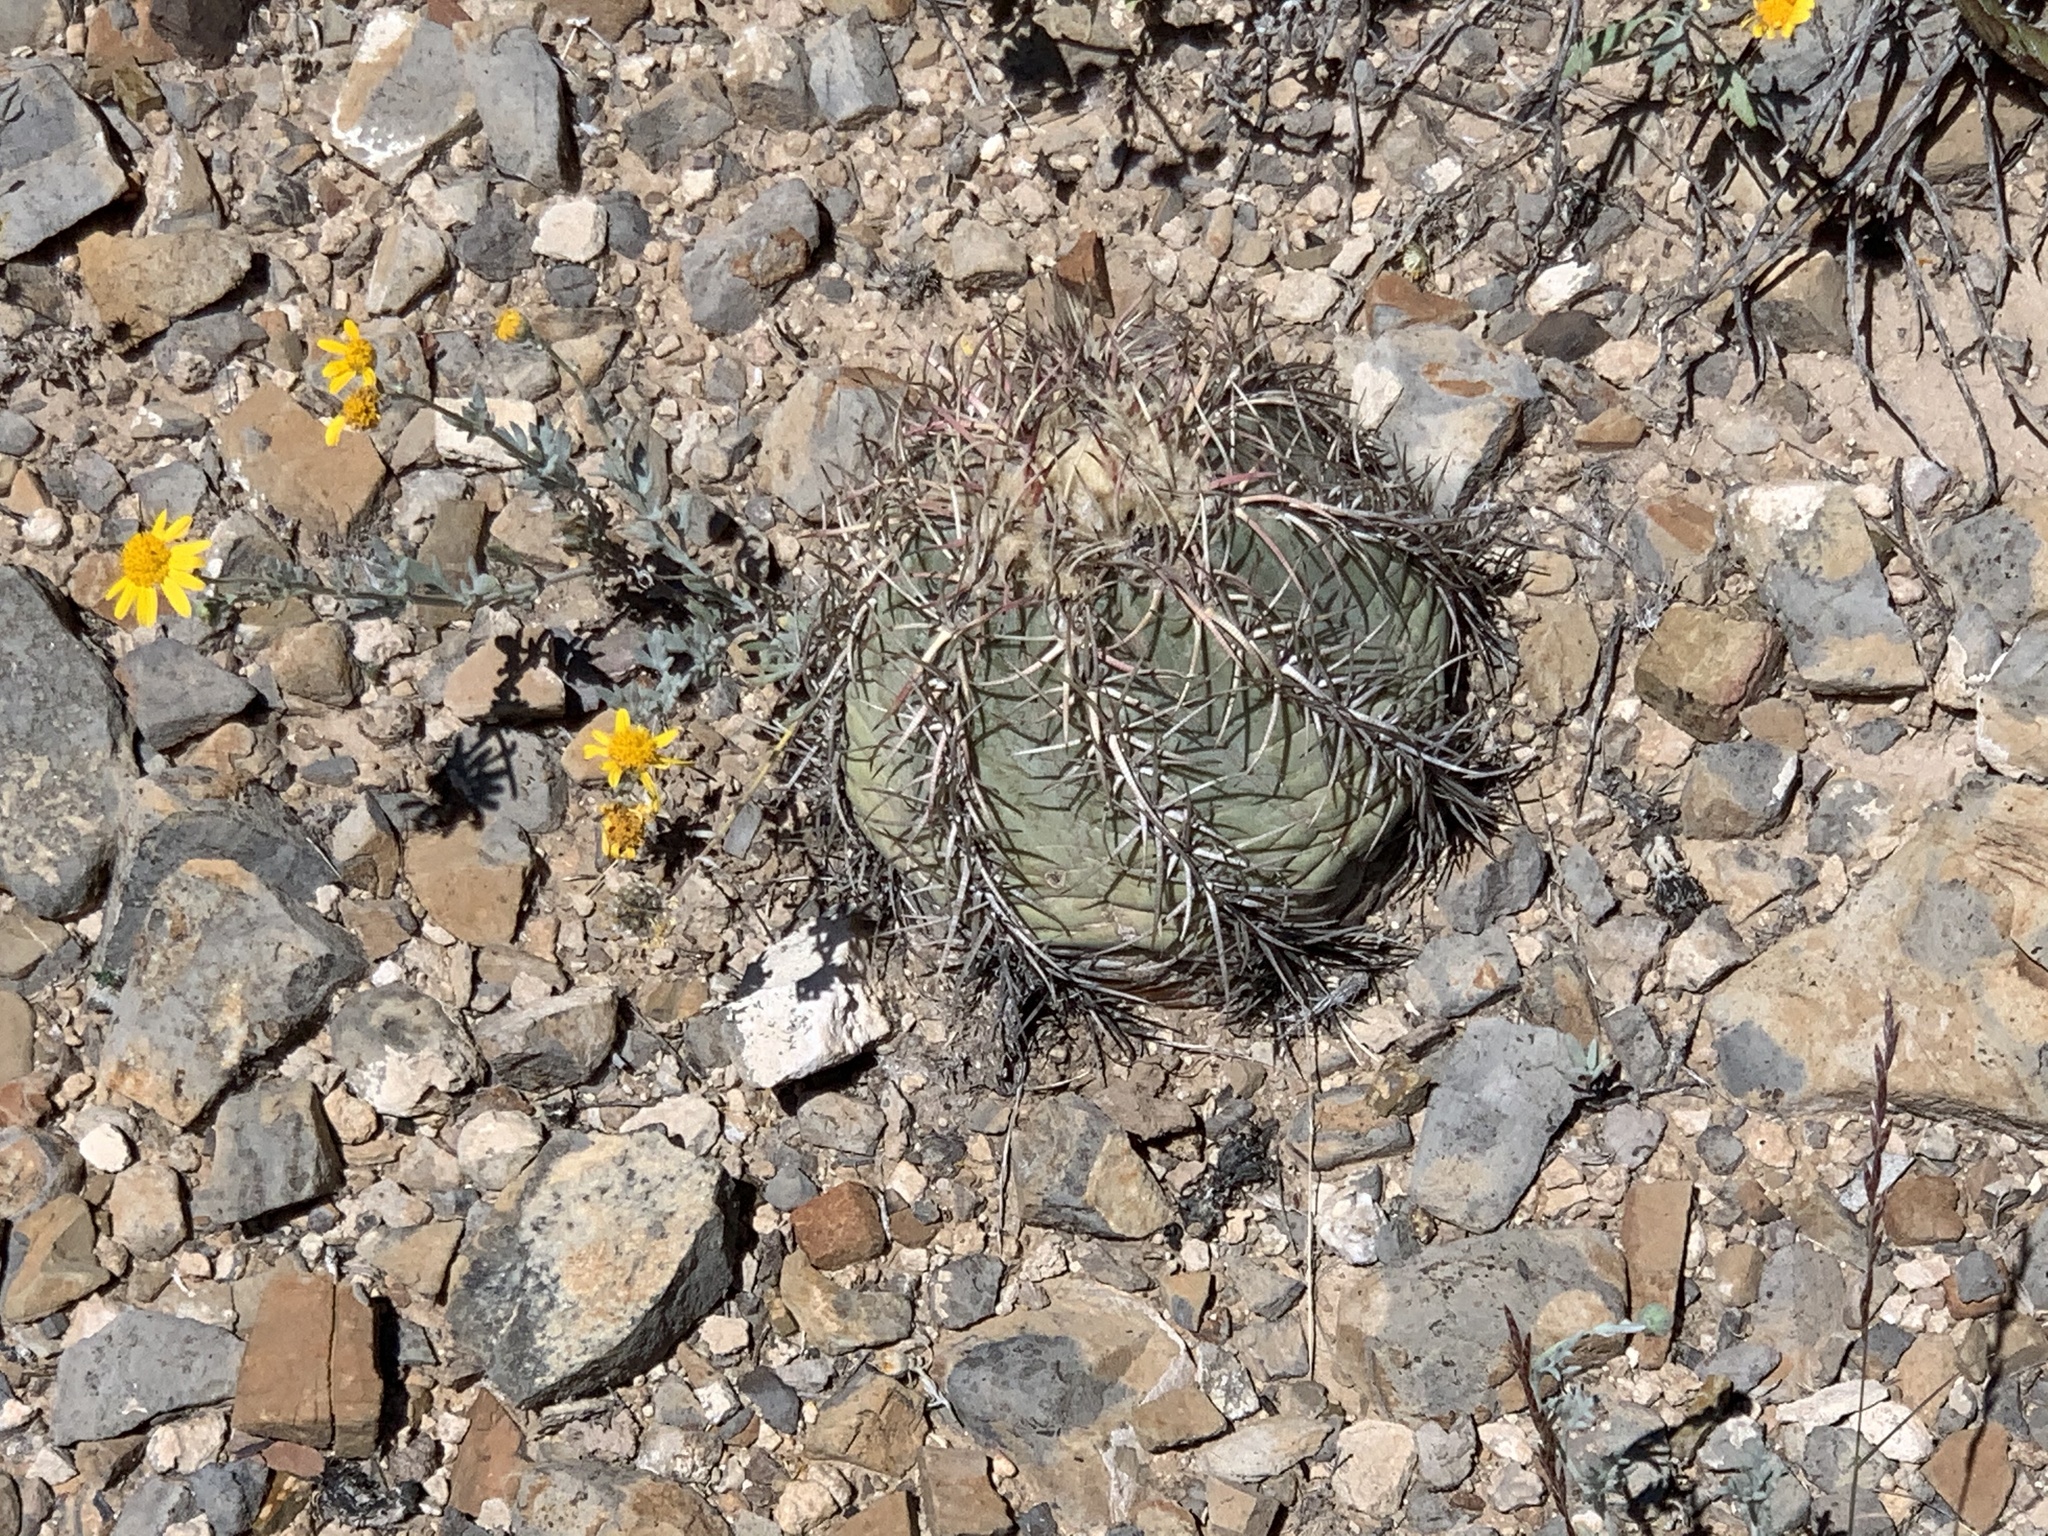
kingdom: Plantae
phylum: Tracheophyta
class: Magnoliopsida
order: Caryophyllales
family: Cactaceae
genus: Echinocactus
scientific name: Echinocactus horizonthalonius
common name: Devilshead
